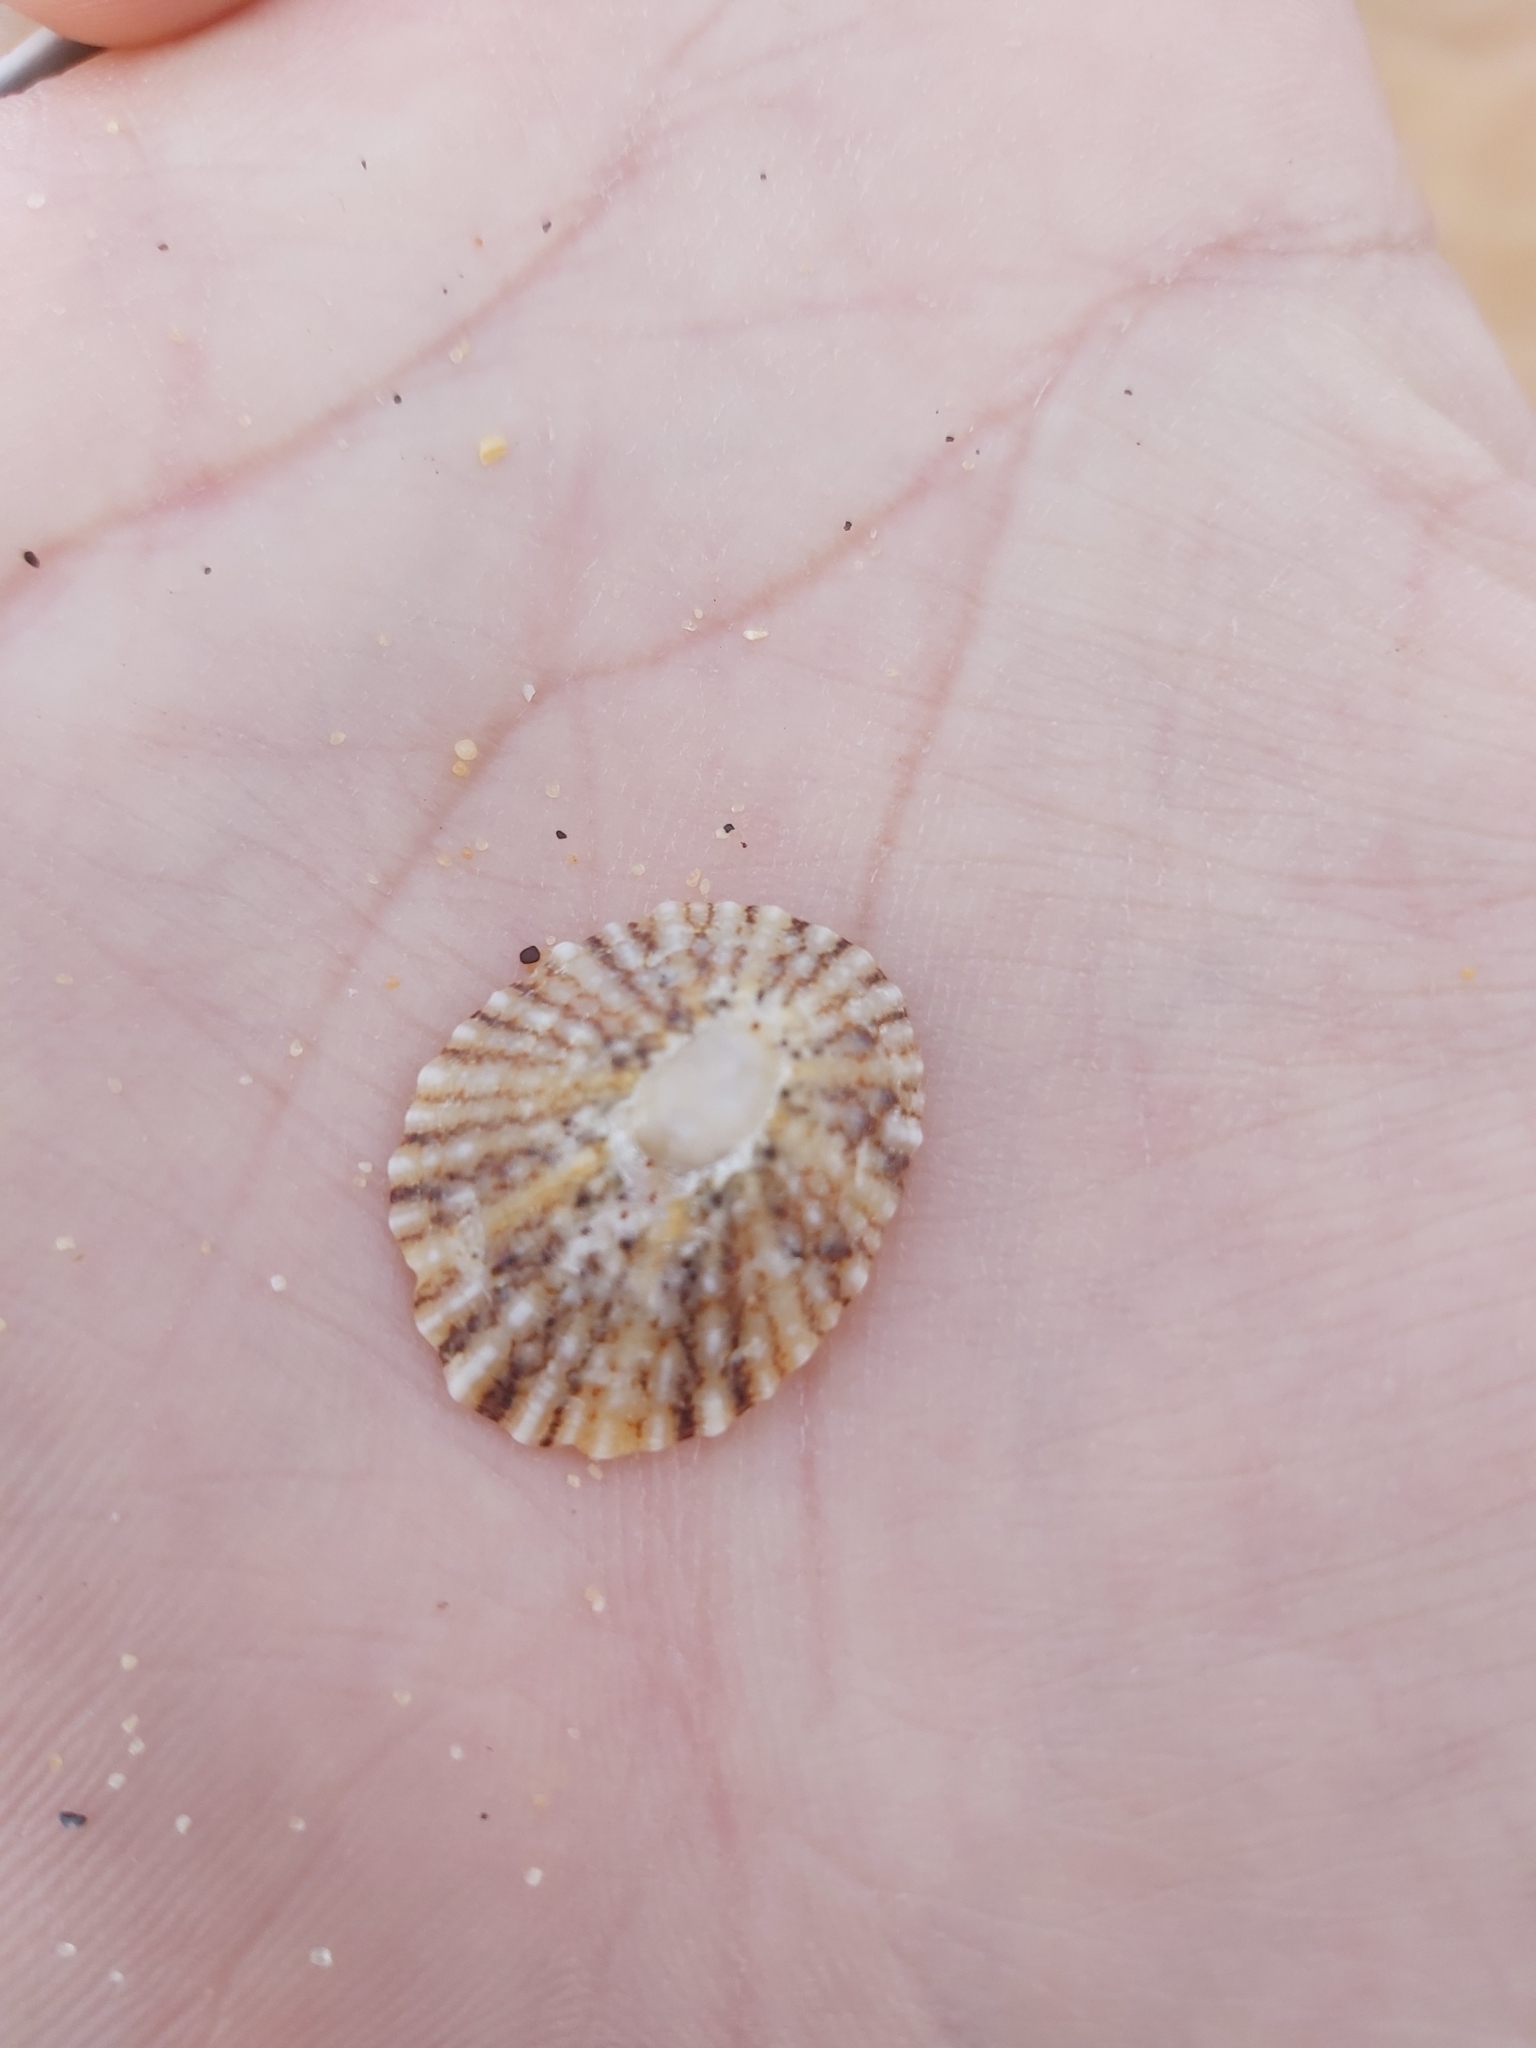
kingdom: Animalia
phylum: Mollusca
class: Gastropoda
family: Nacellidae
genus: Cellana
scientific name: Cellana tramoserica
